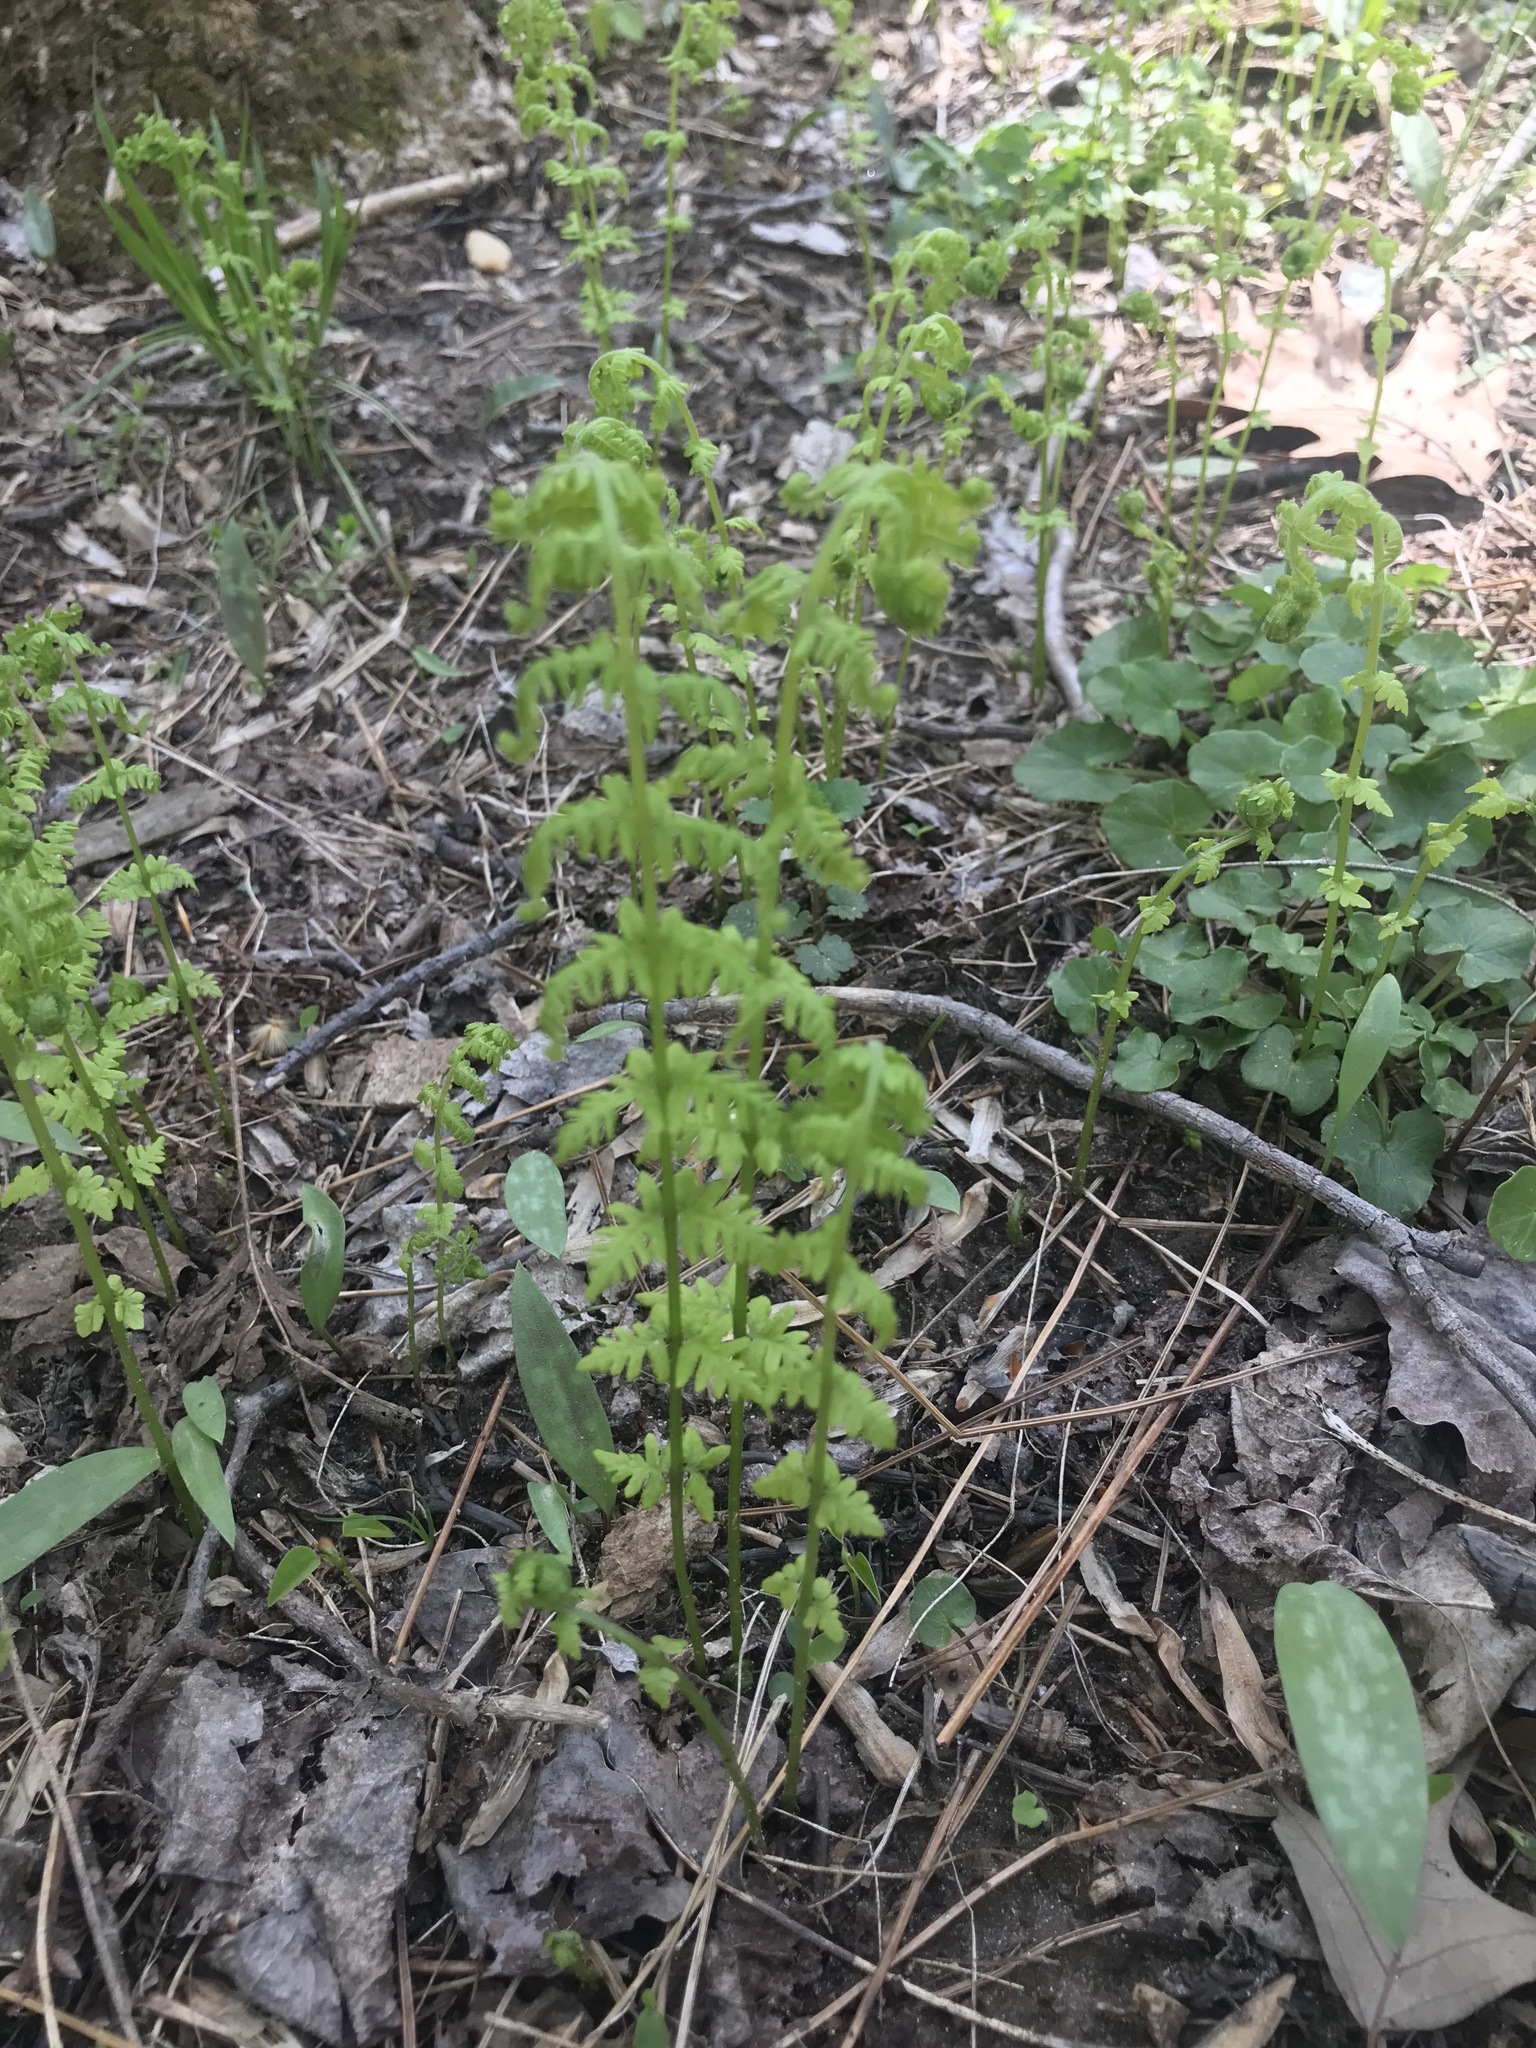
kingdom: Plantae
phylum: Tracheophyta
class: Liliopsida
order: Liliales
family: Liliaceae
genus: Erythronium
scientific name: Erythronium americanum
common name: Yellow adder's-tongue
